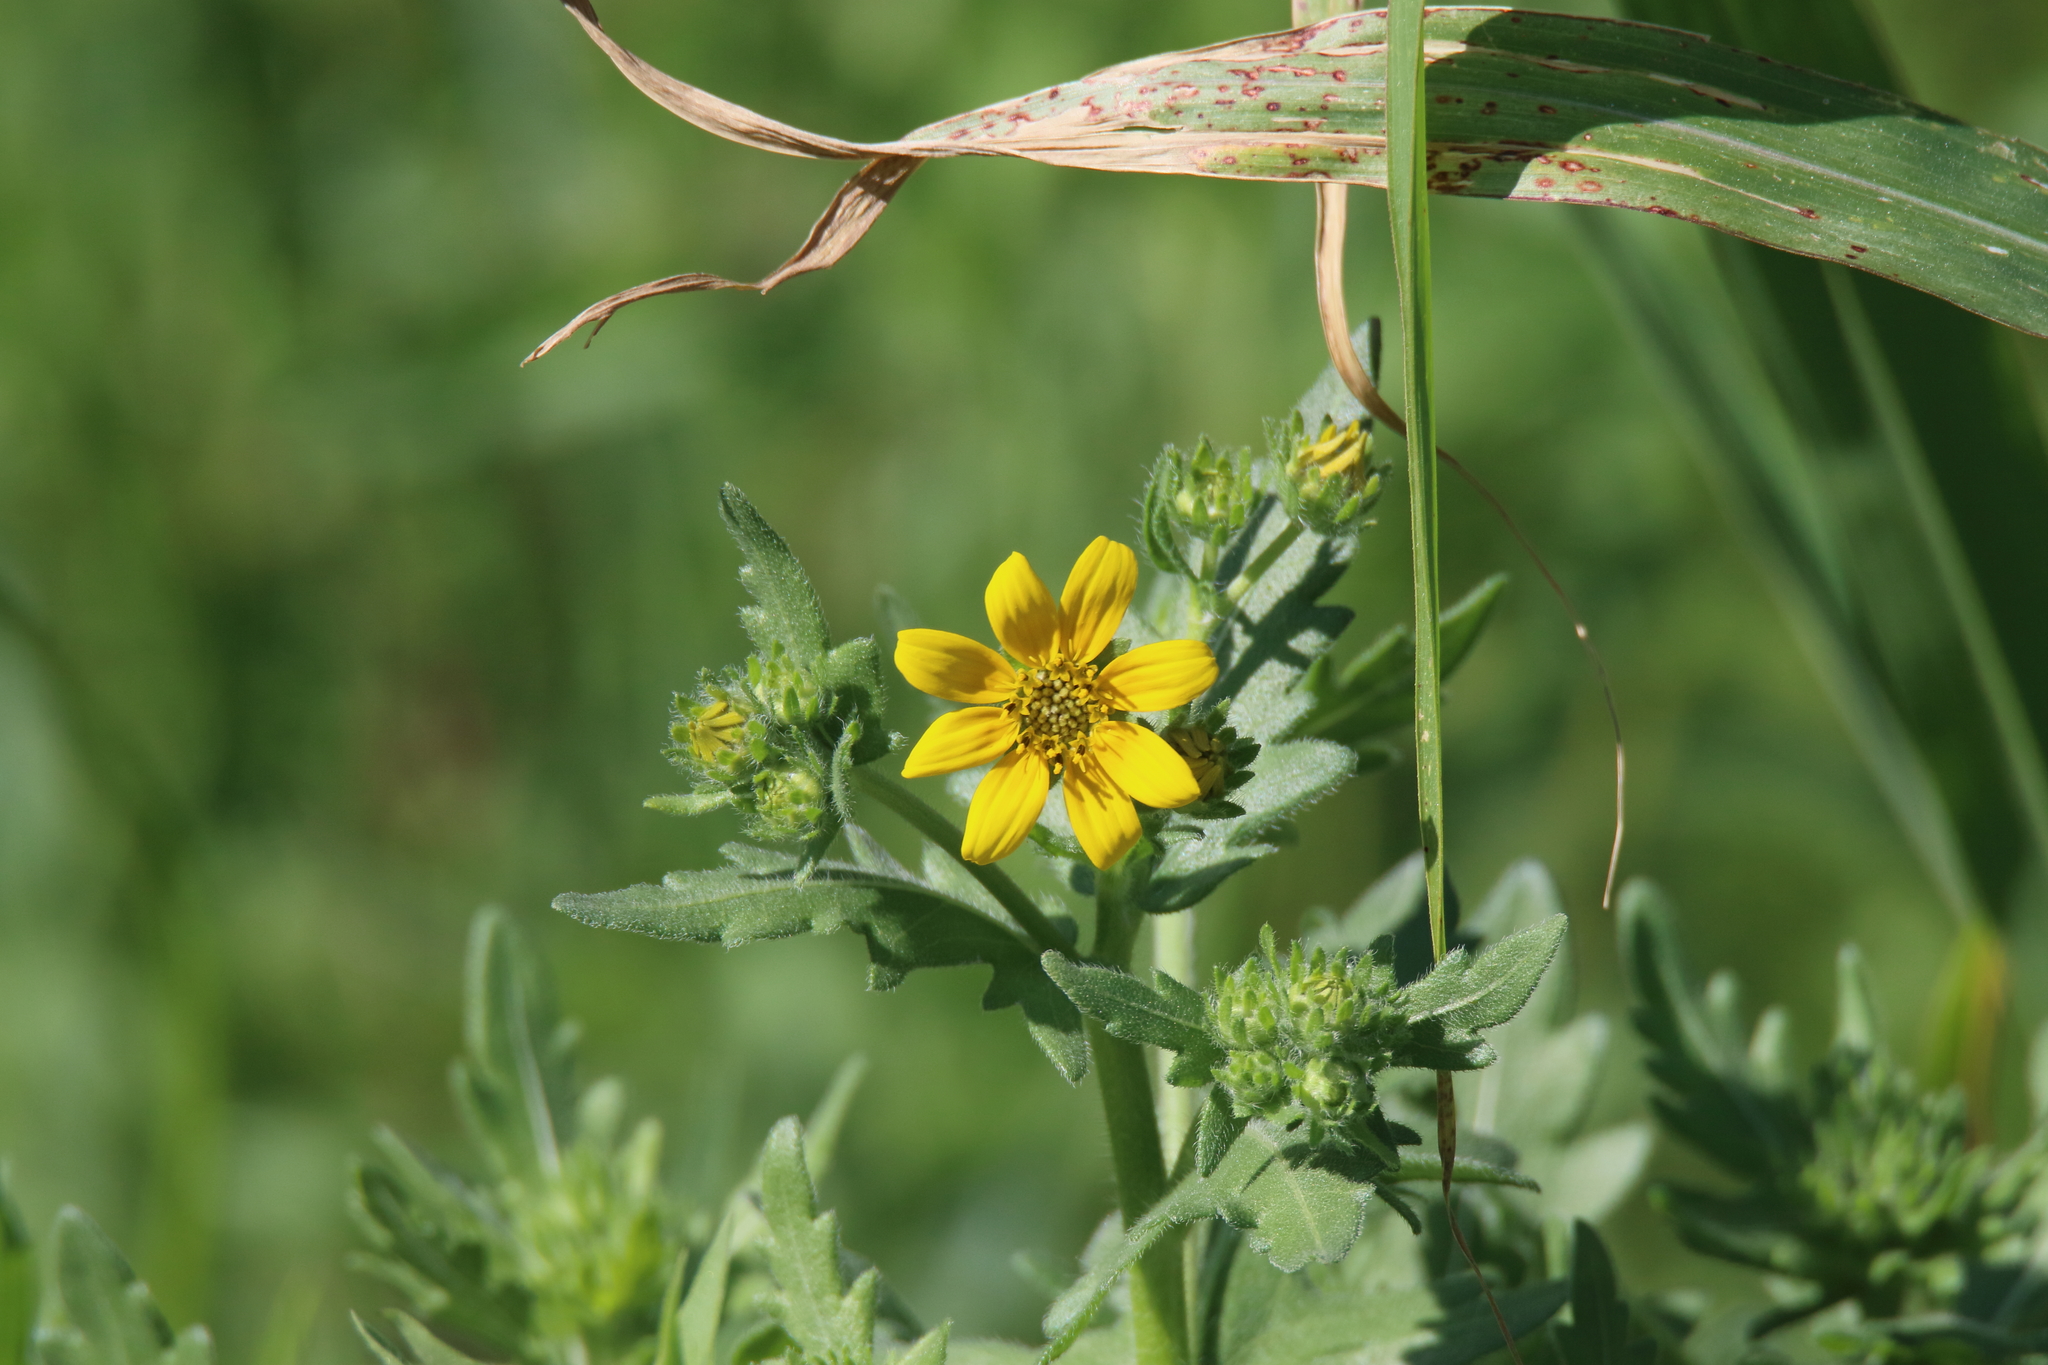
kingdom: Plantae
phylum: Tracheophyta
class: Magnoliopsida
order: Asterales
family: Asteraceae
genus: Engelmannia
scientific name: Engelmannia peristenia
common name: Engelmann's daisy
